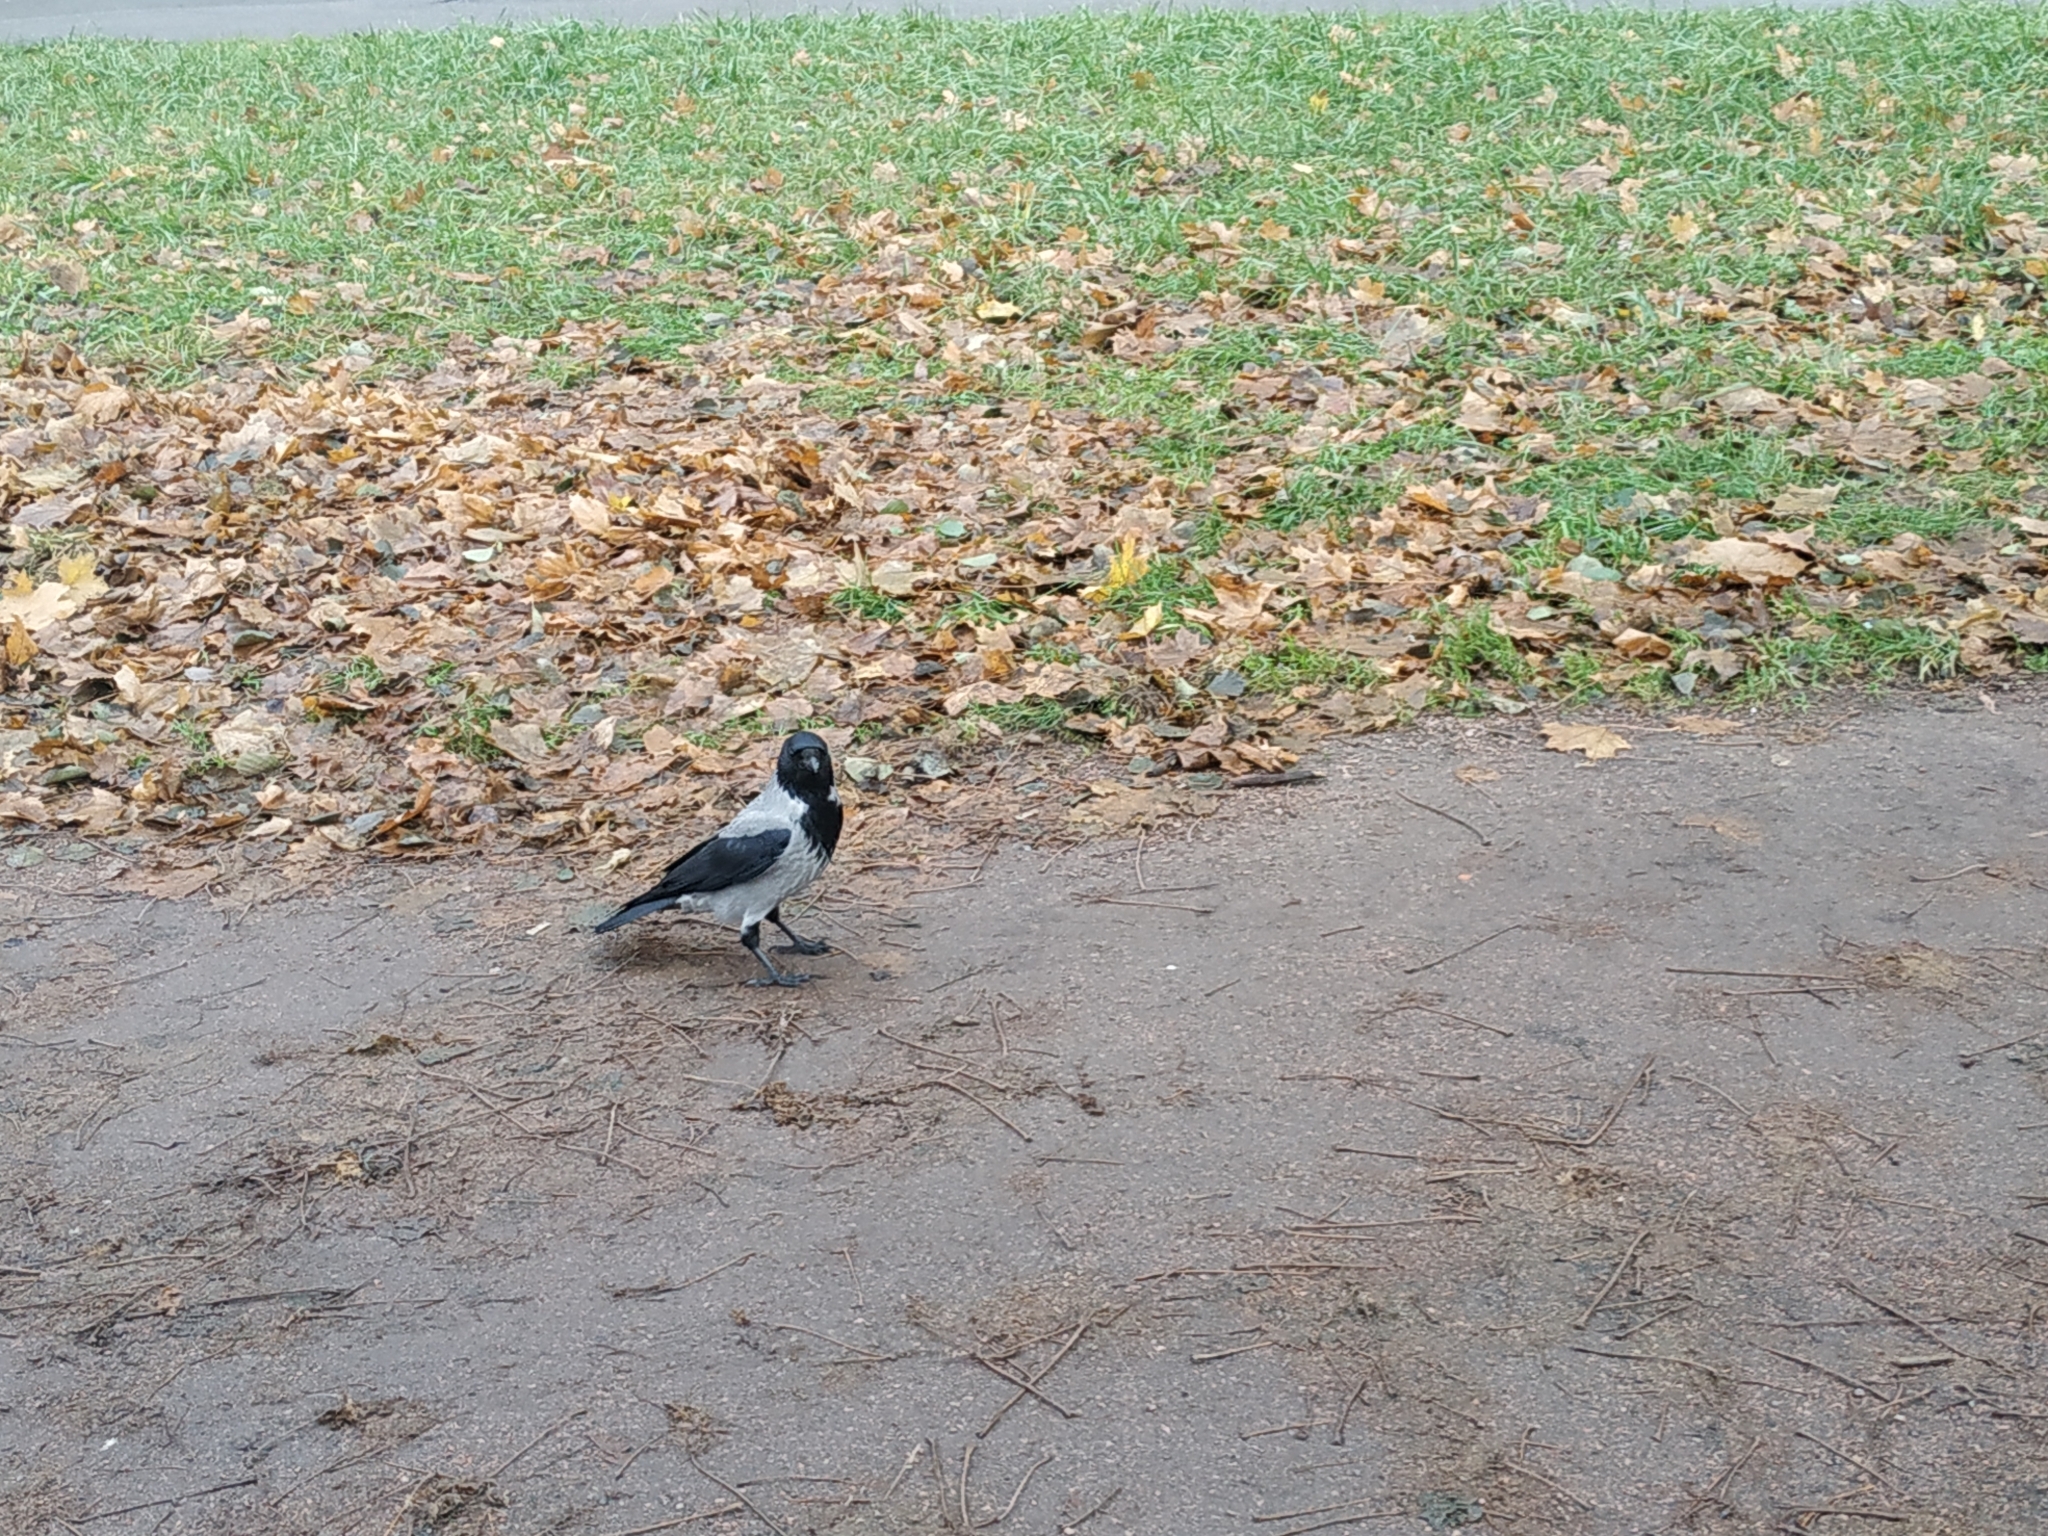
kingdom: Animalia
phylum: Chordata
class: Aves
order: Passeriformes
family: Corvidae
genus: Corvus
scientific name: Corvus cornix
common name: Hooded crow
